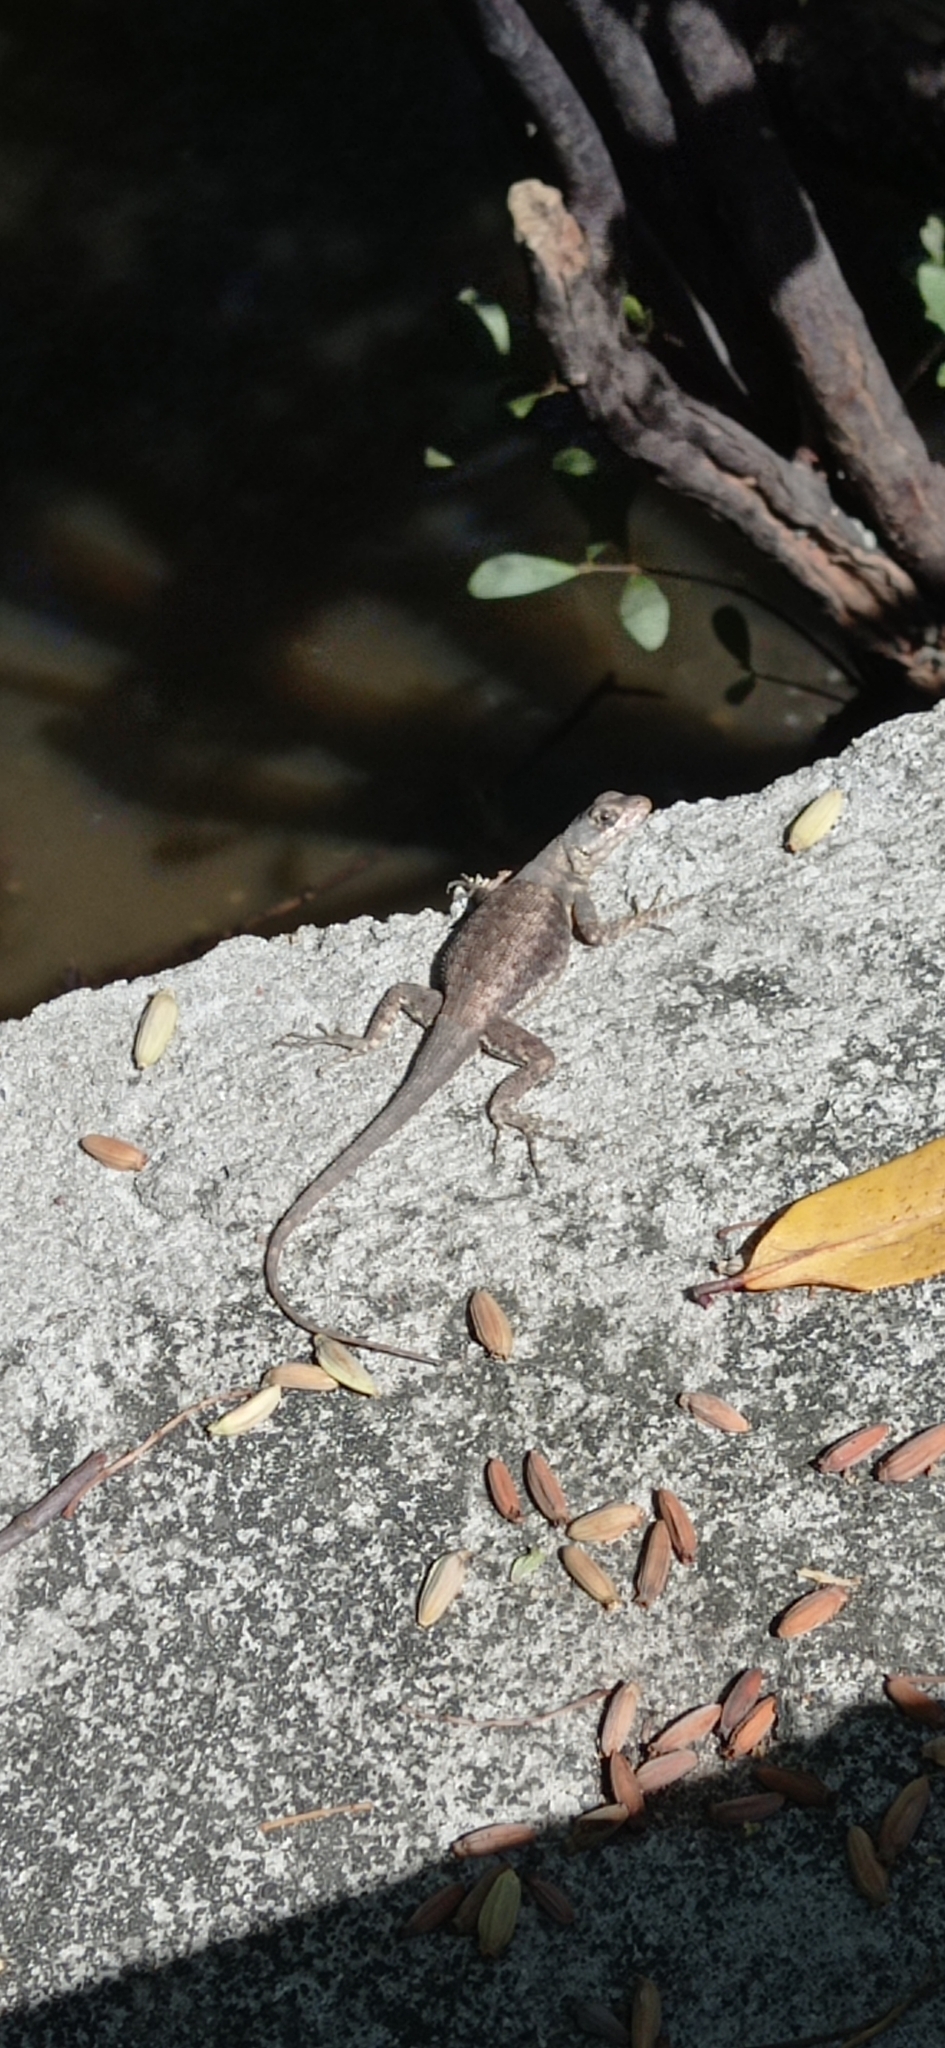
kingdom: Animalia
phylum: Chordata
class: Squamata
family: Tropiduridae
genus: Tropidurus
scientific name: Tropidurus hispidus
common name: Peters' lava lizard
